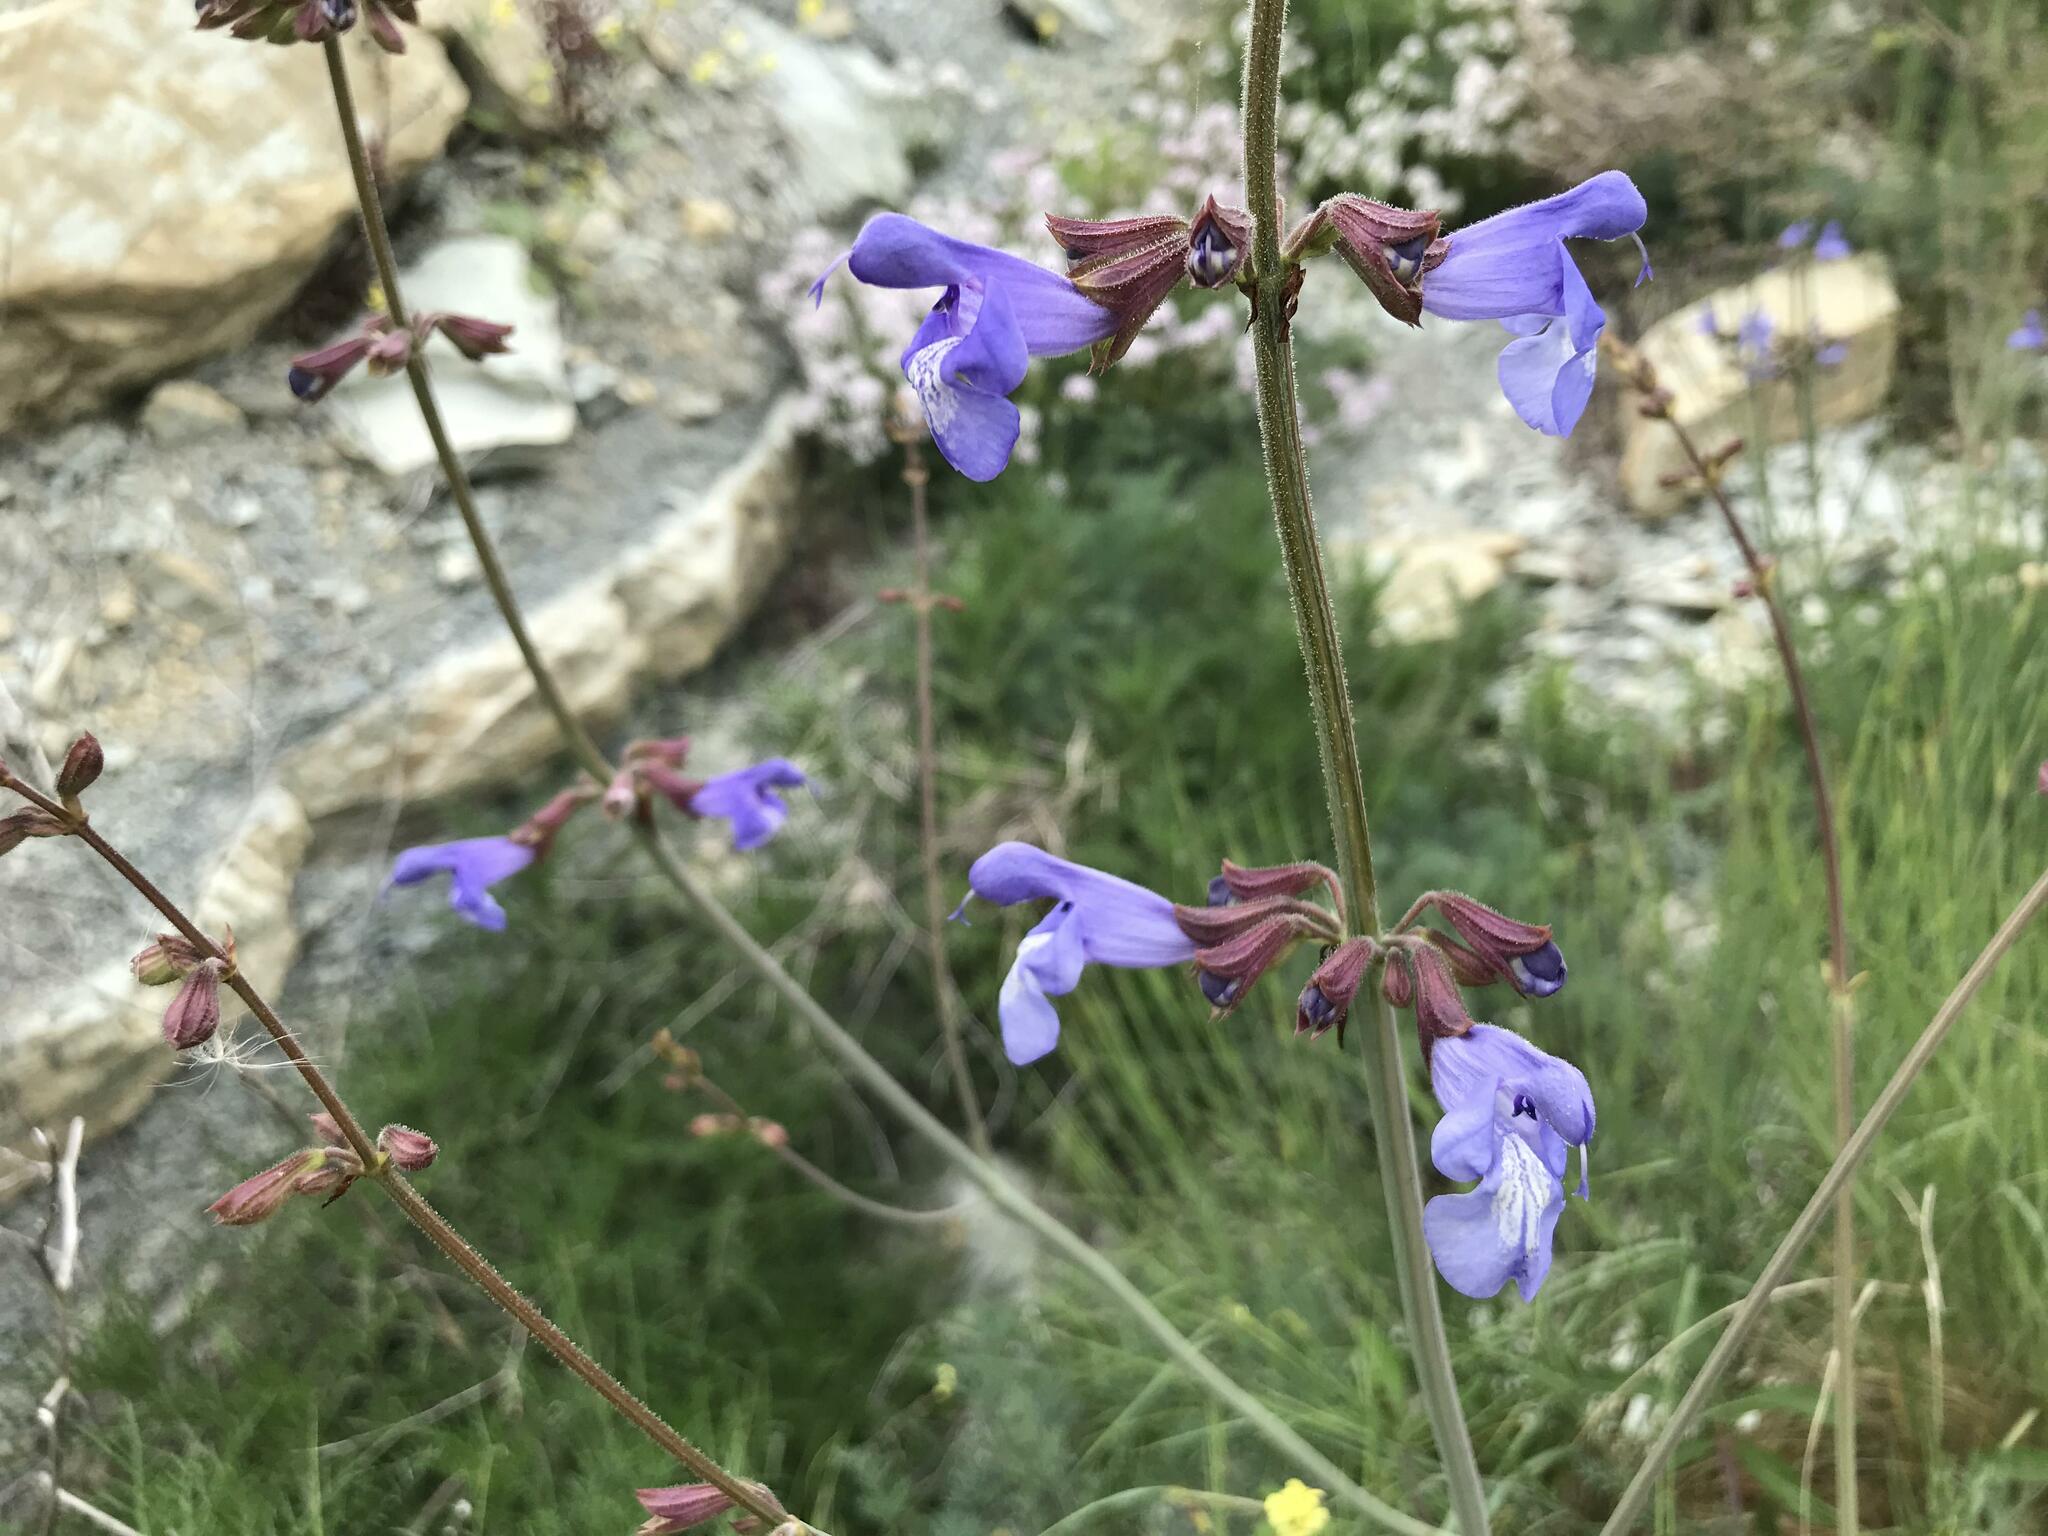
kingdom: Plantae
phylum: Tracheophyta
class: Magnoliopsida
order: Lamiales
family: Lamiaceae
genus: Salvia
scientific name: Salvia ringens
